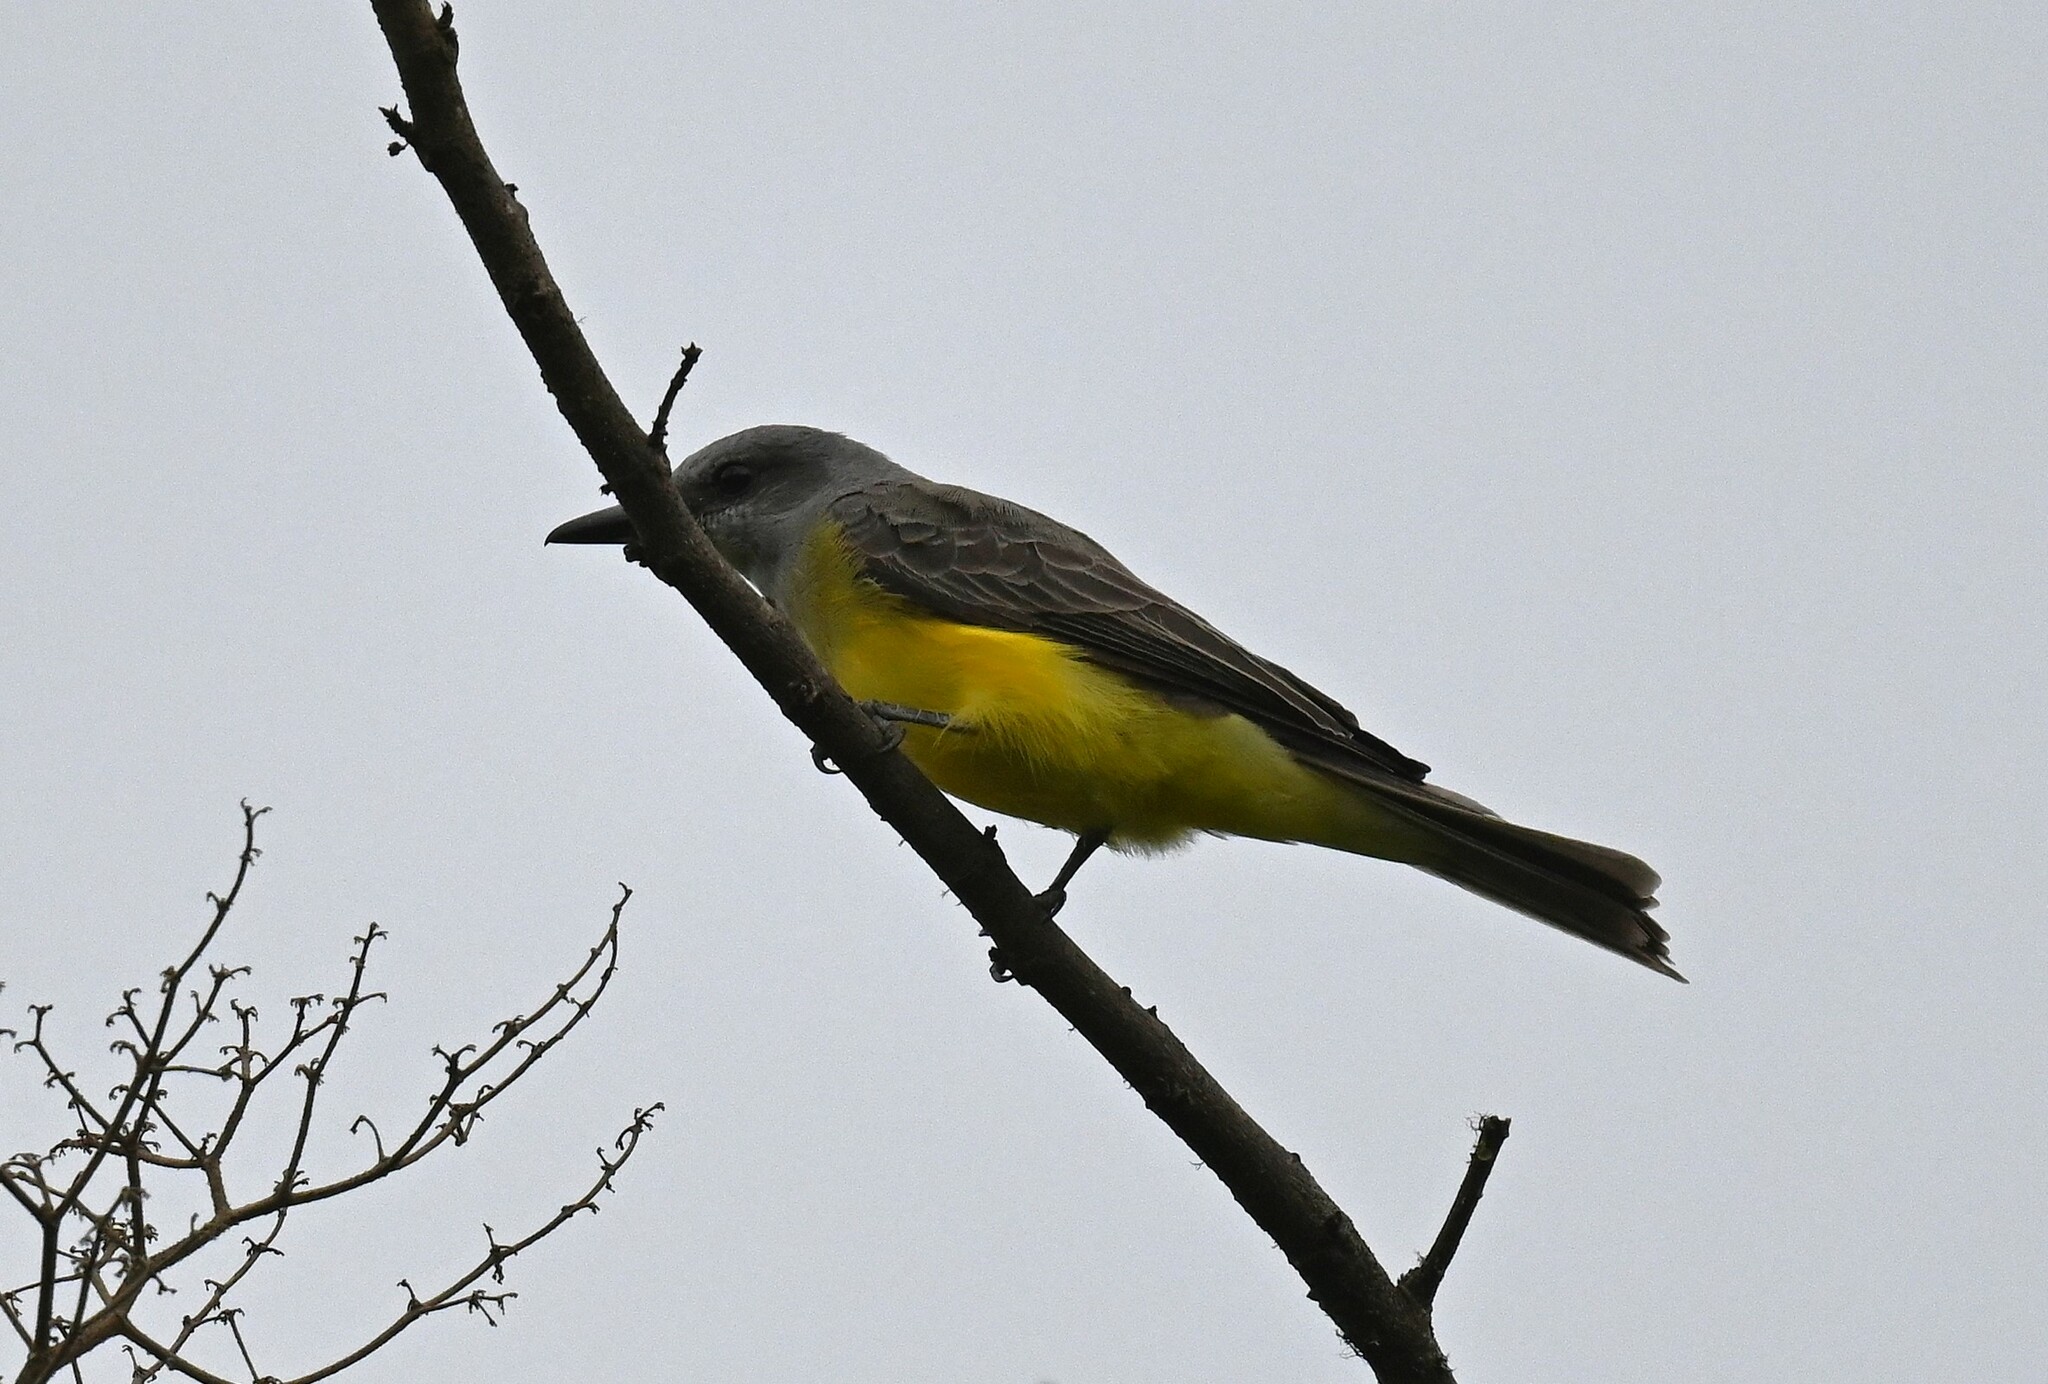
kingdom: Animalia
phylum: Chordata
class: Aves
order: Passeriformes
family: Tyrannidae
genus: Tyrannus
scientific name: Tyrannus melancholicus
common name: Tropical kingbird
